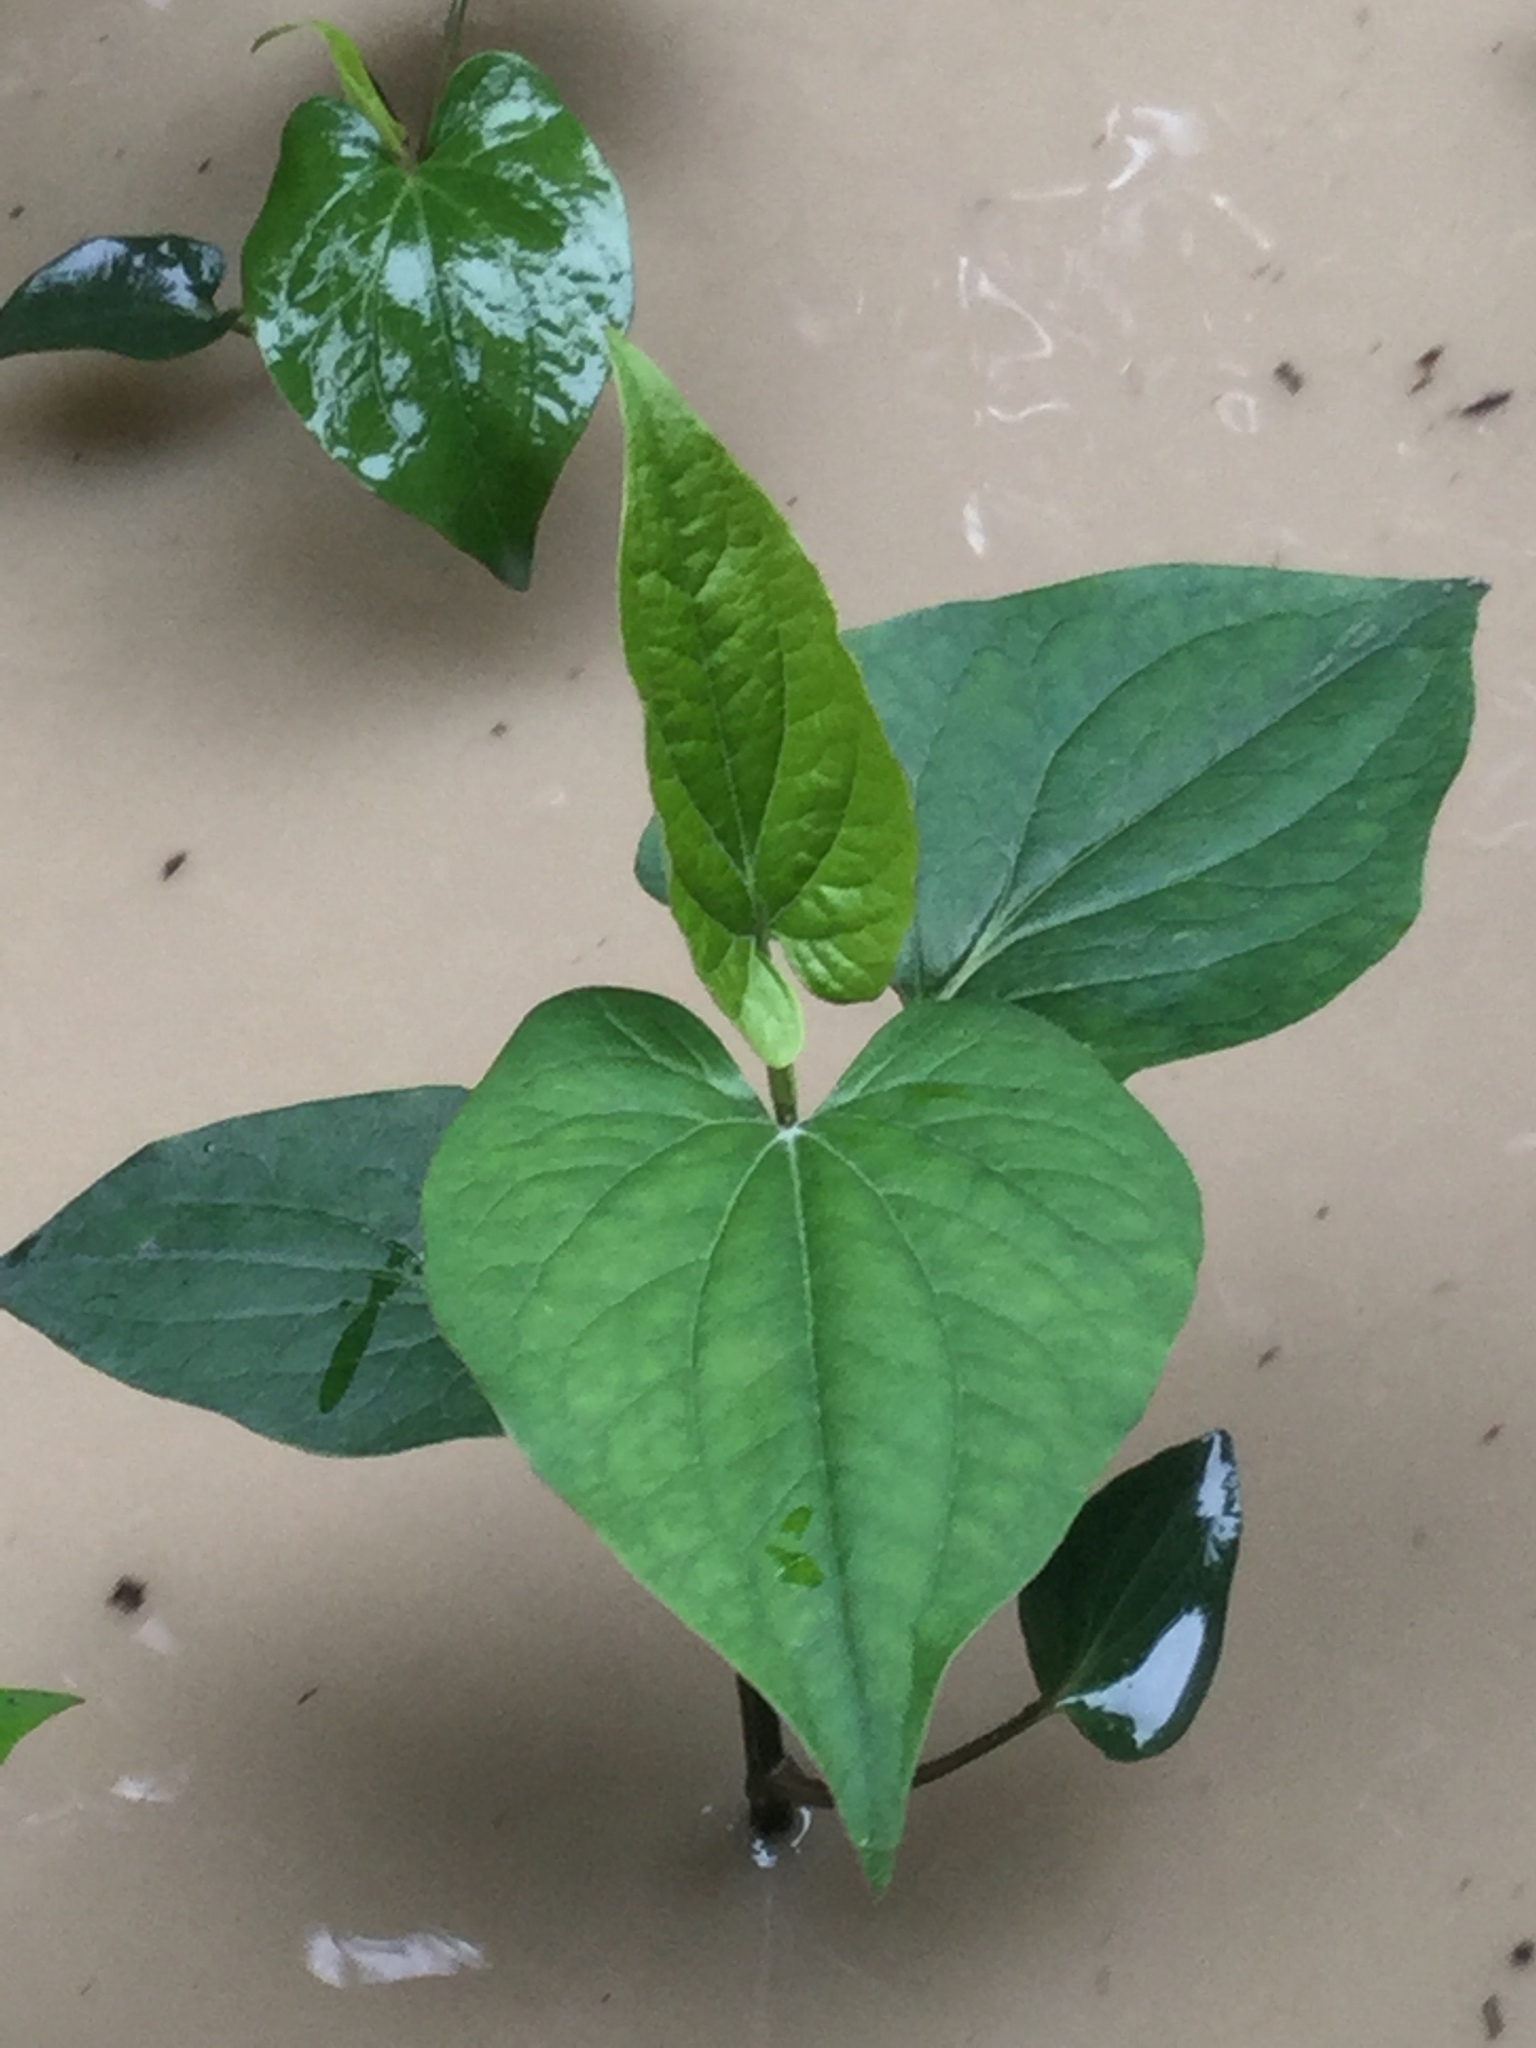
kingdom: Plantae
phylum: Tracheophyta
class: Magnoliopsida
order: Piperales
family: Saururaceae
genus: Saururus
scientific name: Saururus cernuus
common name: Lizard's-tail
